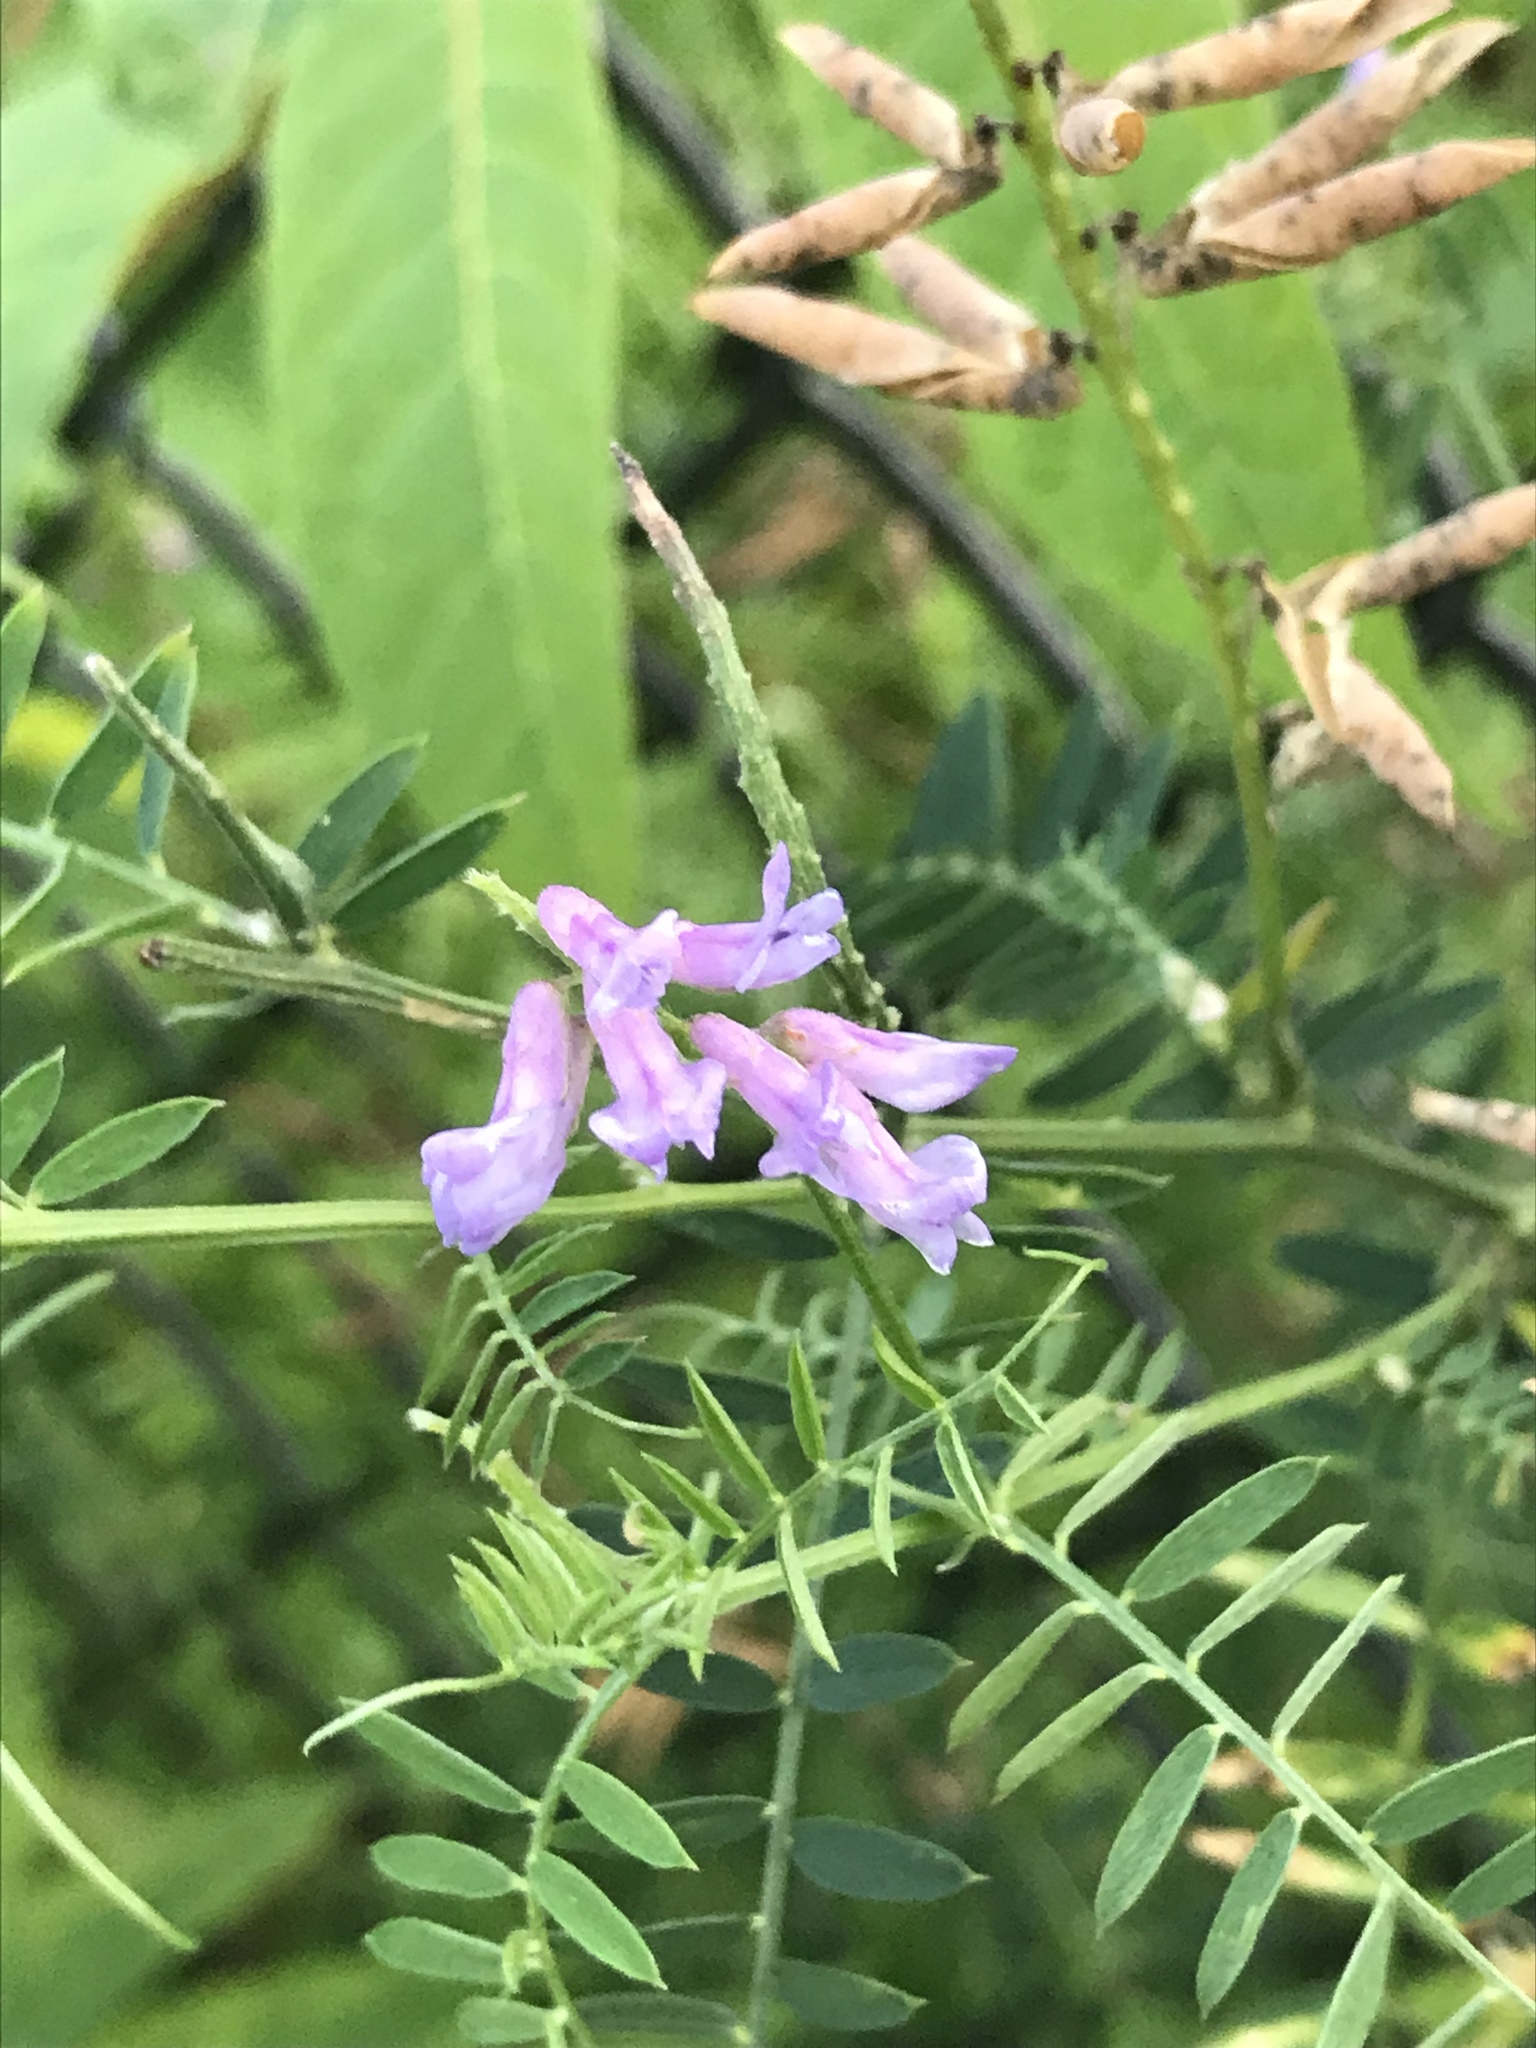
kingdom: Plantae
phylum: Tracheophyta
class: Magnoliopsida
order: Fabales
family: Fabaceae
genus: Vicia
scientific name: Vicia cracca
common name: Bird vetch
